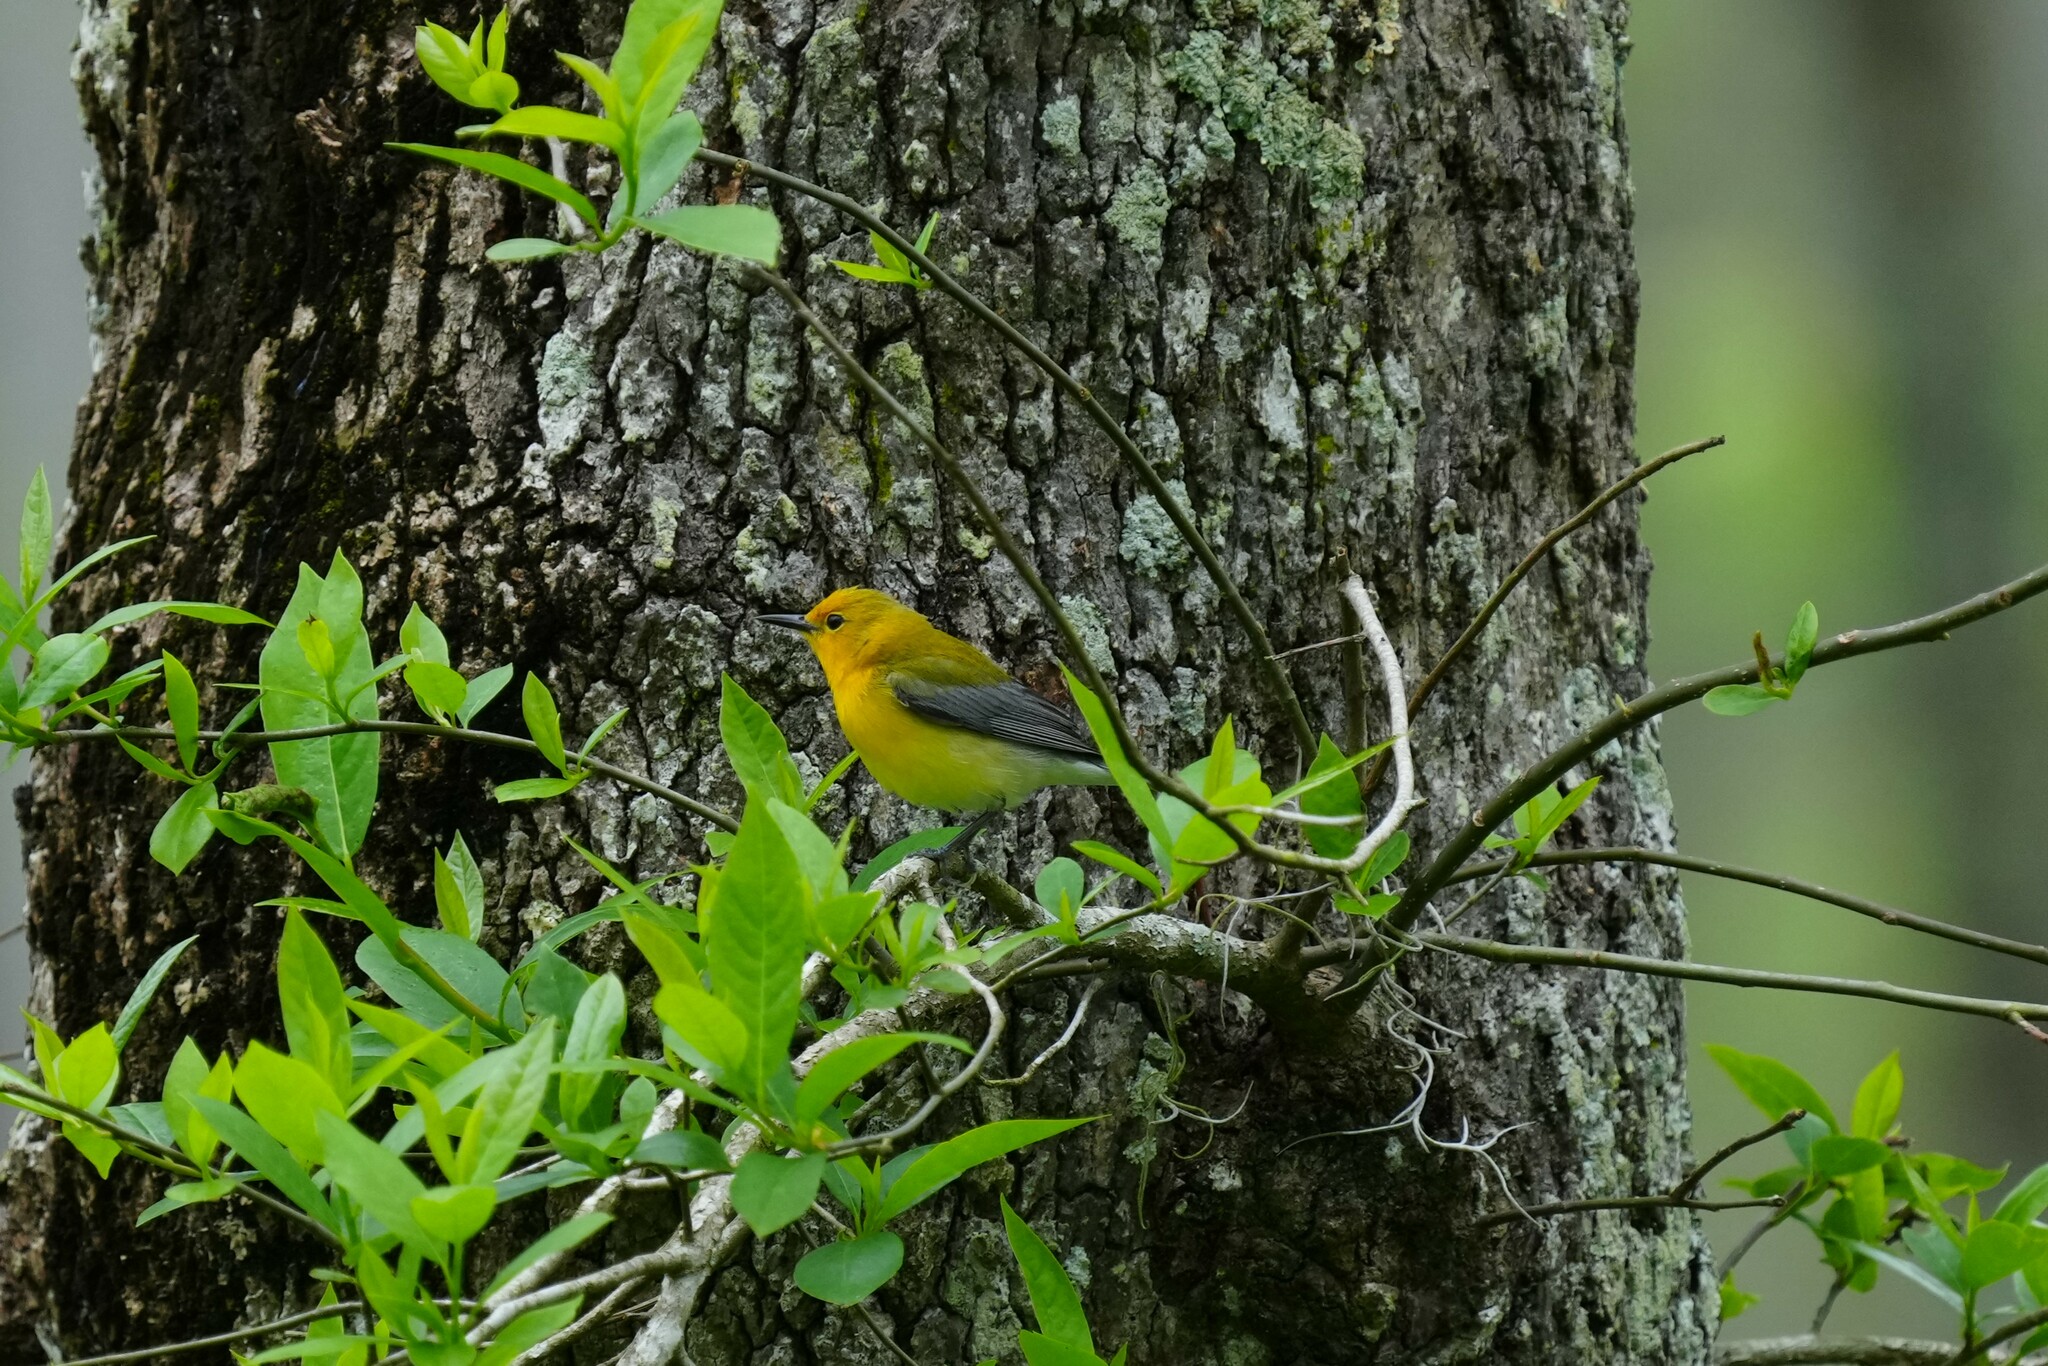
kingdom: Animalia
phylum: Chordata
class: Aves
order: Passeriformes
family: Parulidae
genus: Protonotaria
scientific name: Protonotaria citrea
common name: Prothonotary warbler
